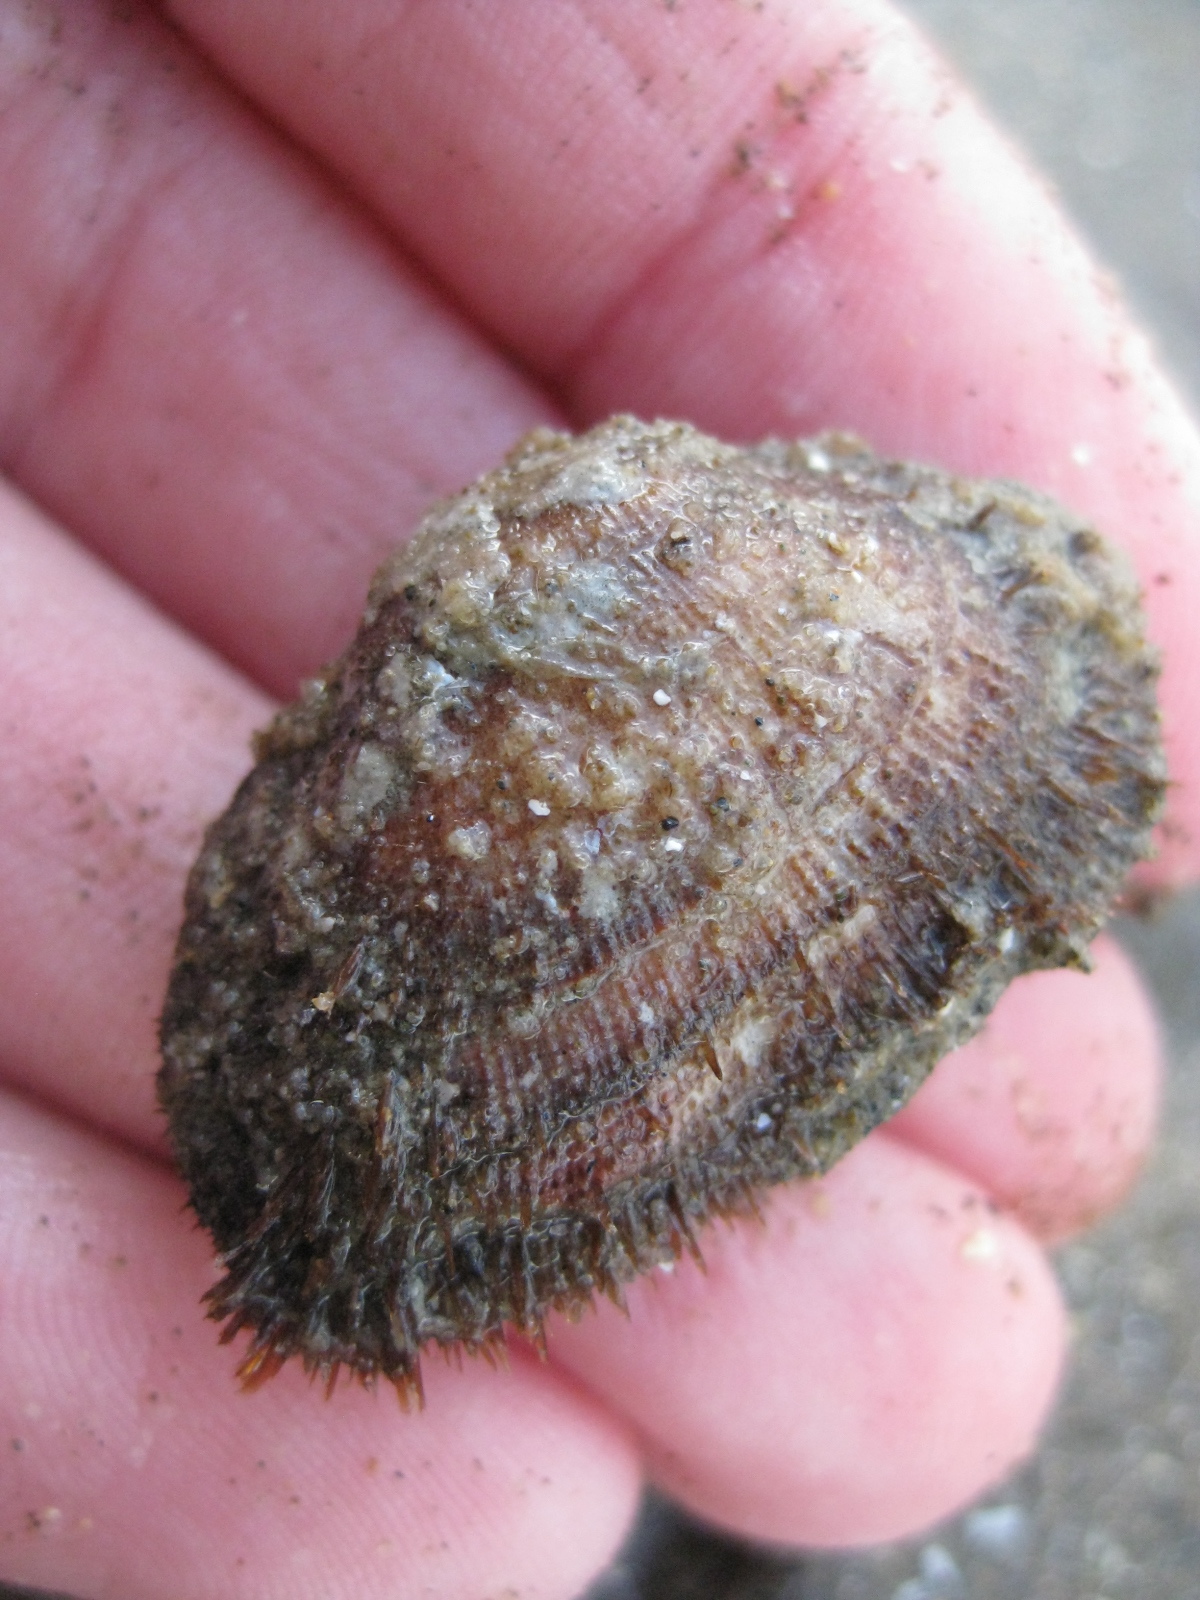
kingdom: Animalia
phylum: Mollusca
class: Bivalvia
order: Arcida
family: Arcidae
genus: Barbatia
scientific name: Barbatia novaezealandiae
